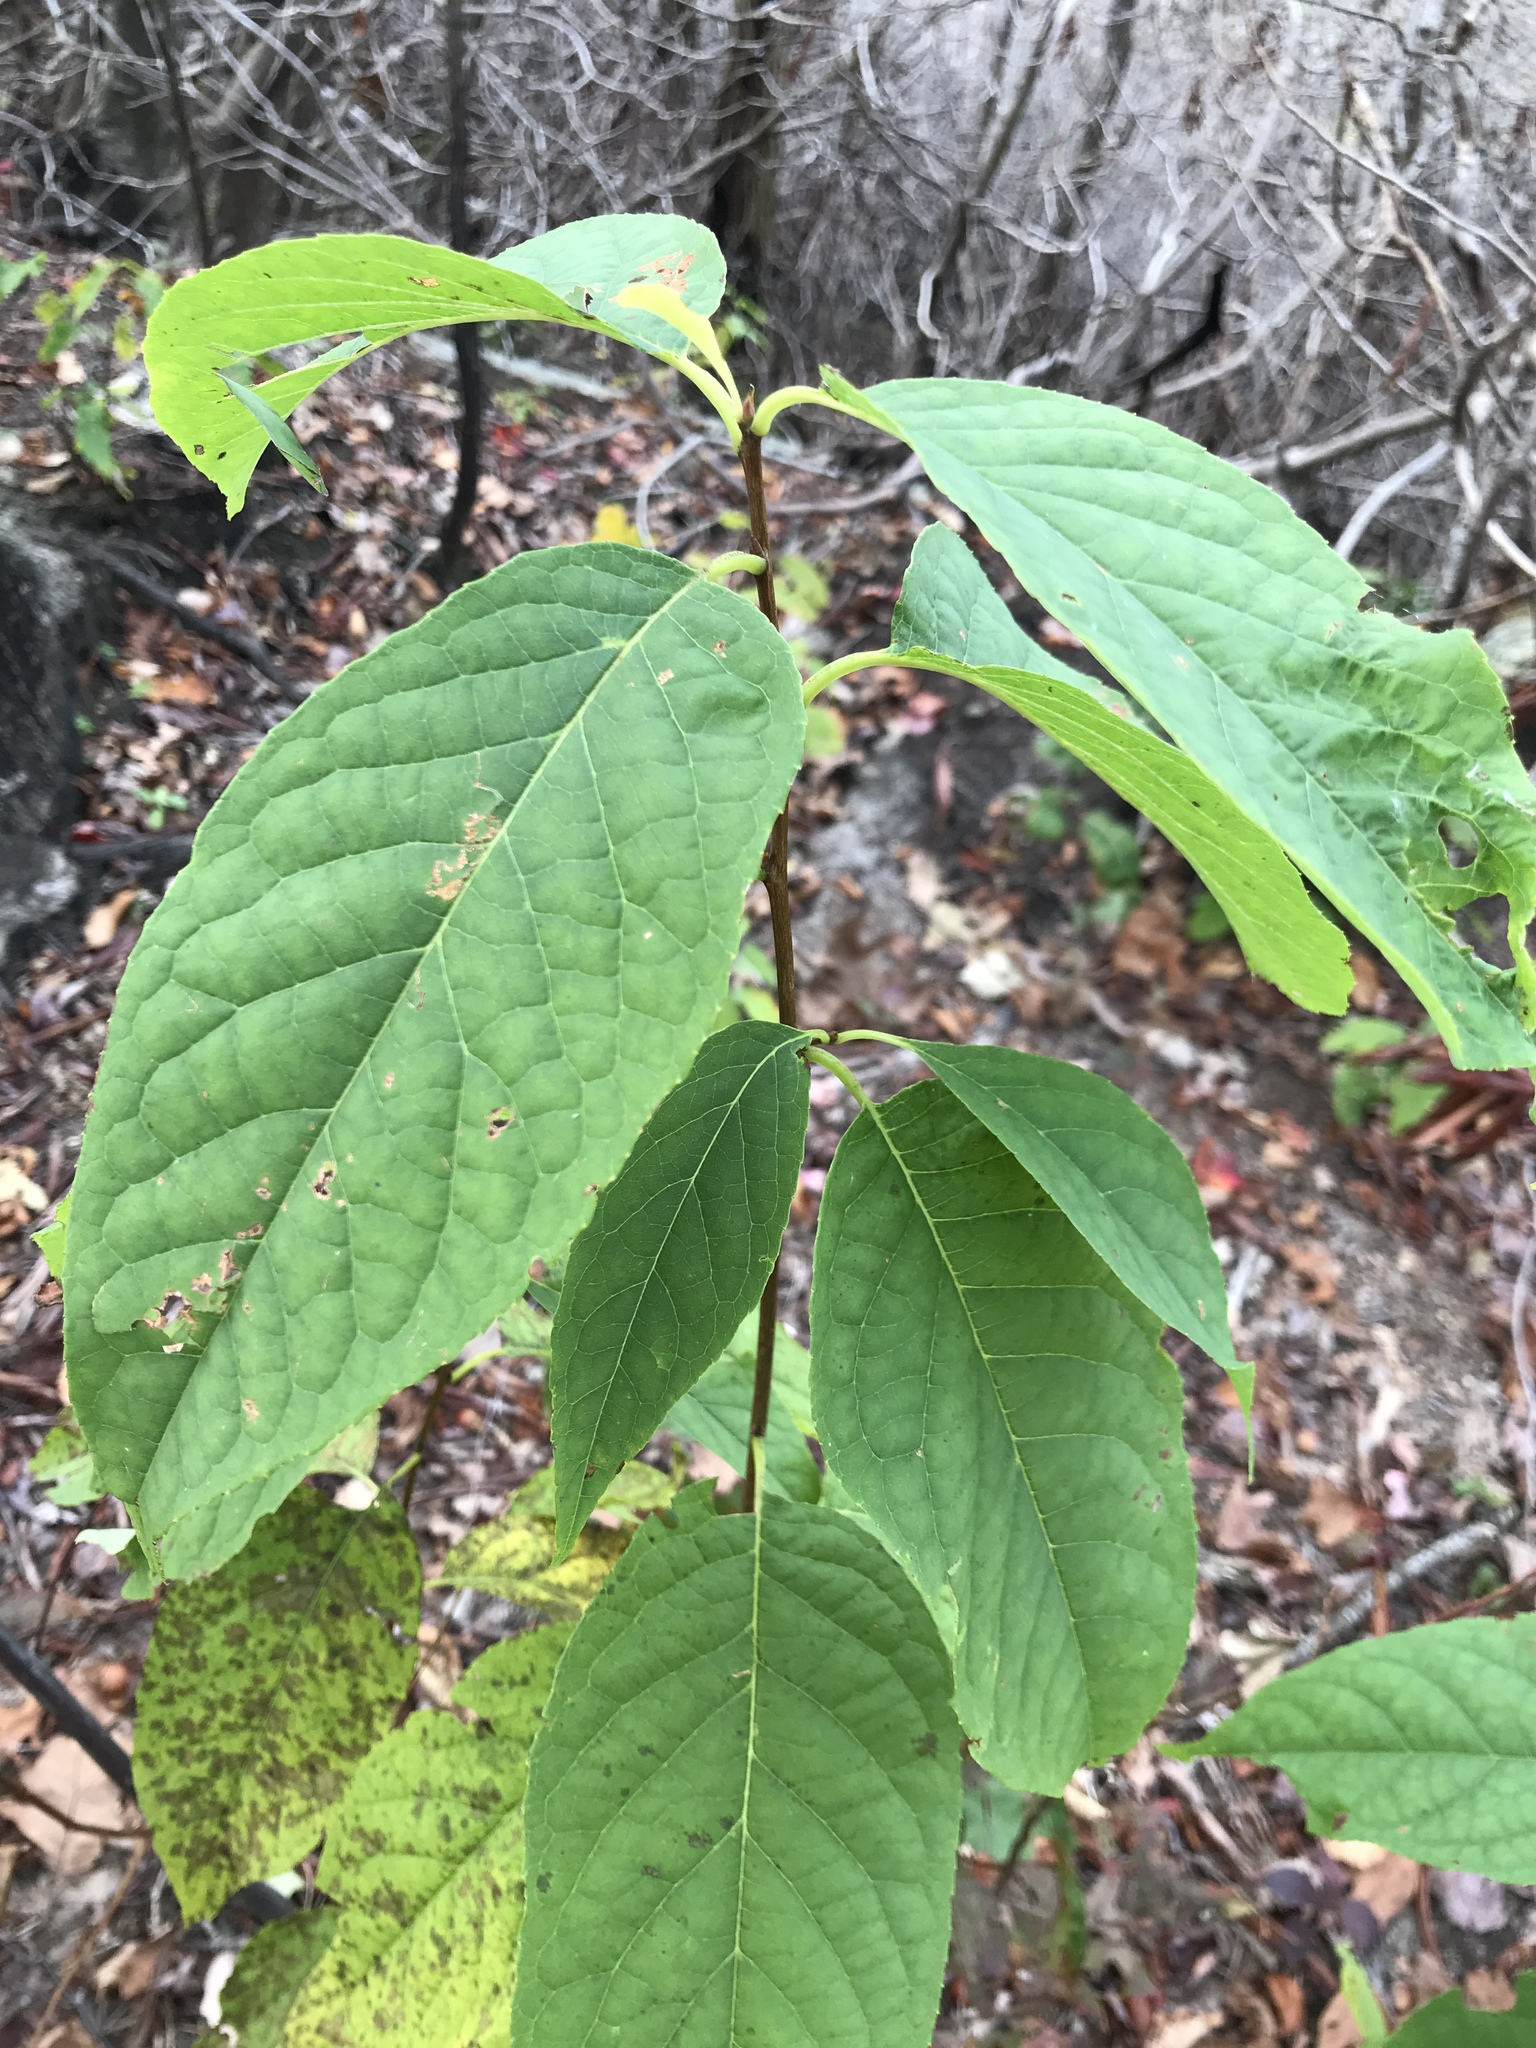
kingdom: Plantae
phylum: Tracheophyta
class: Magnoliopsida
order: Ericales
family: Styracaceae
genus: Halesia
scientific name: Halesia tetraptera
